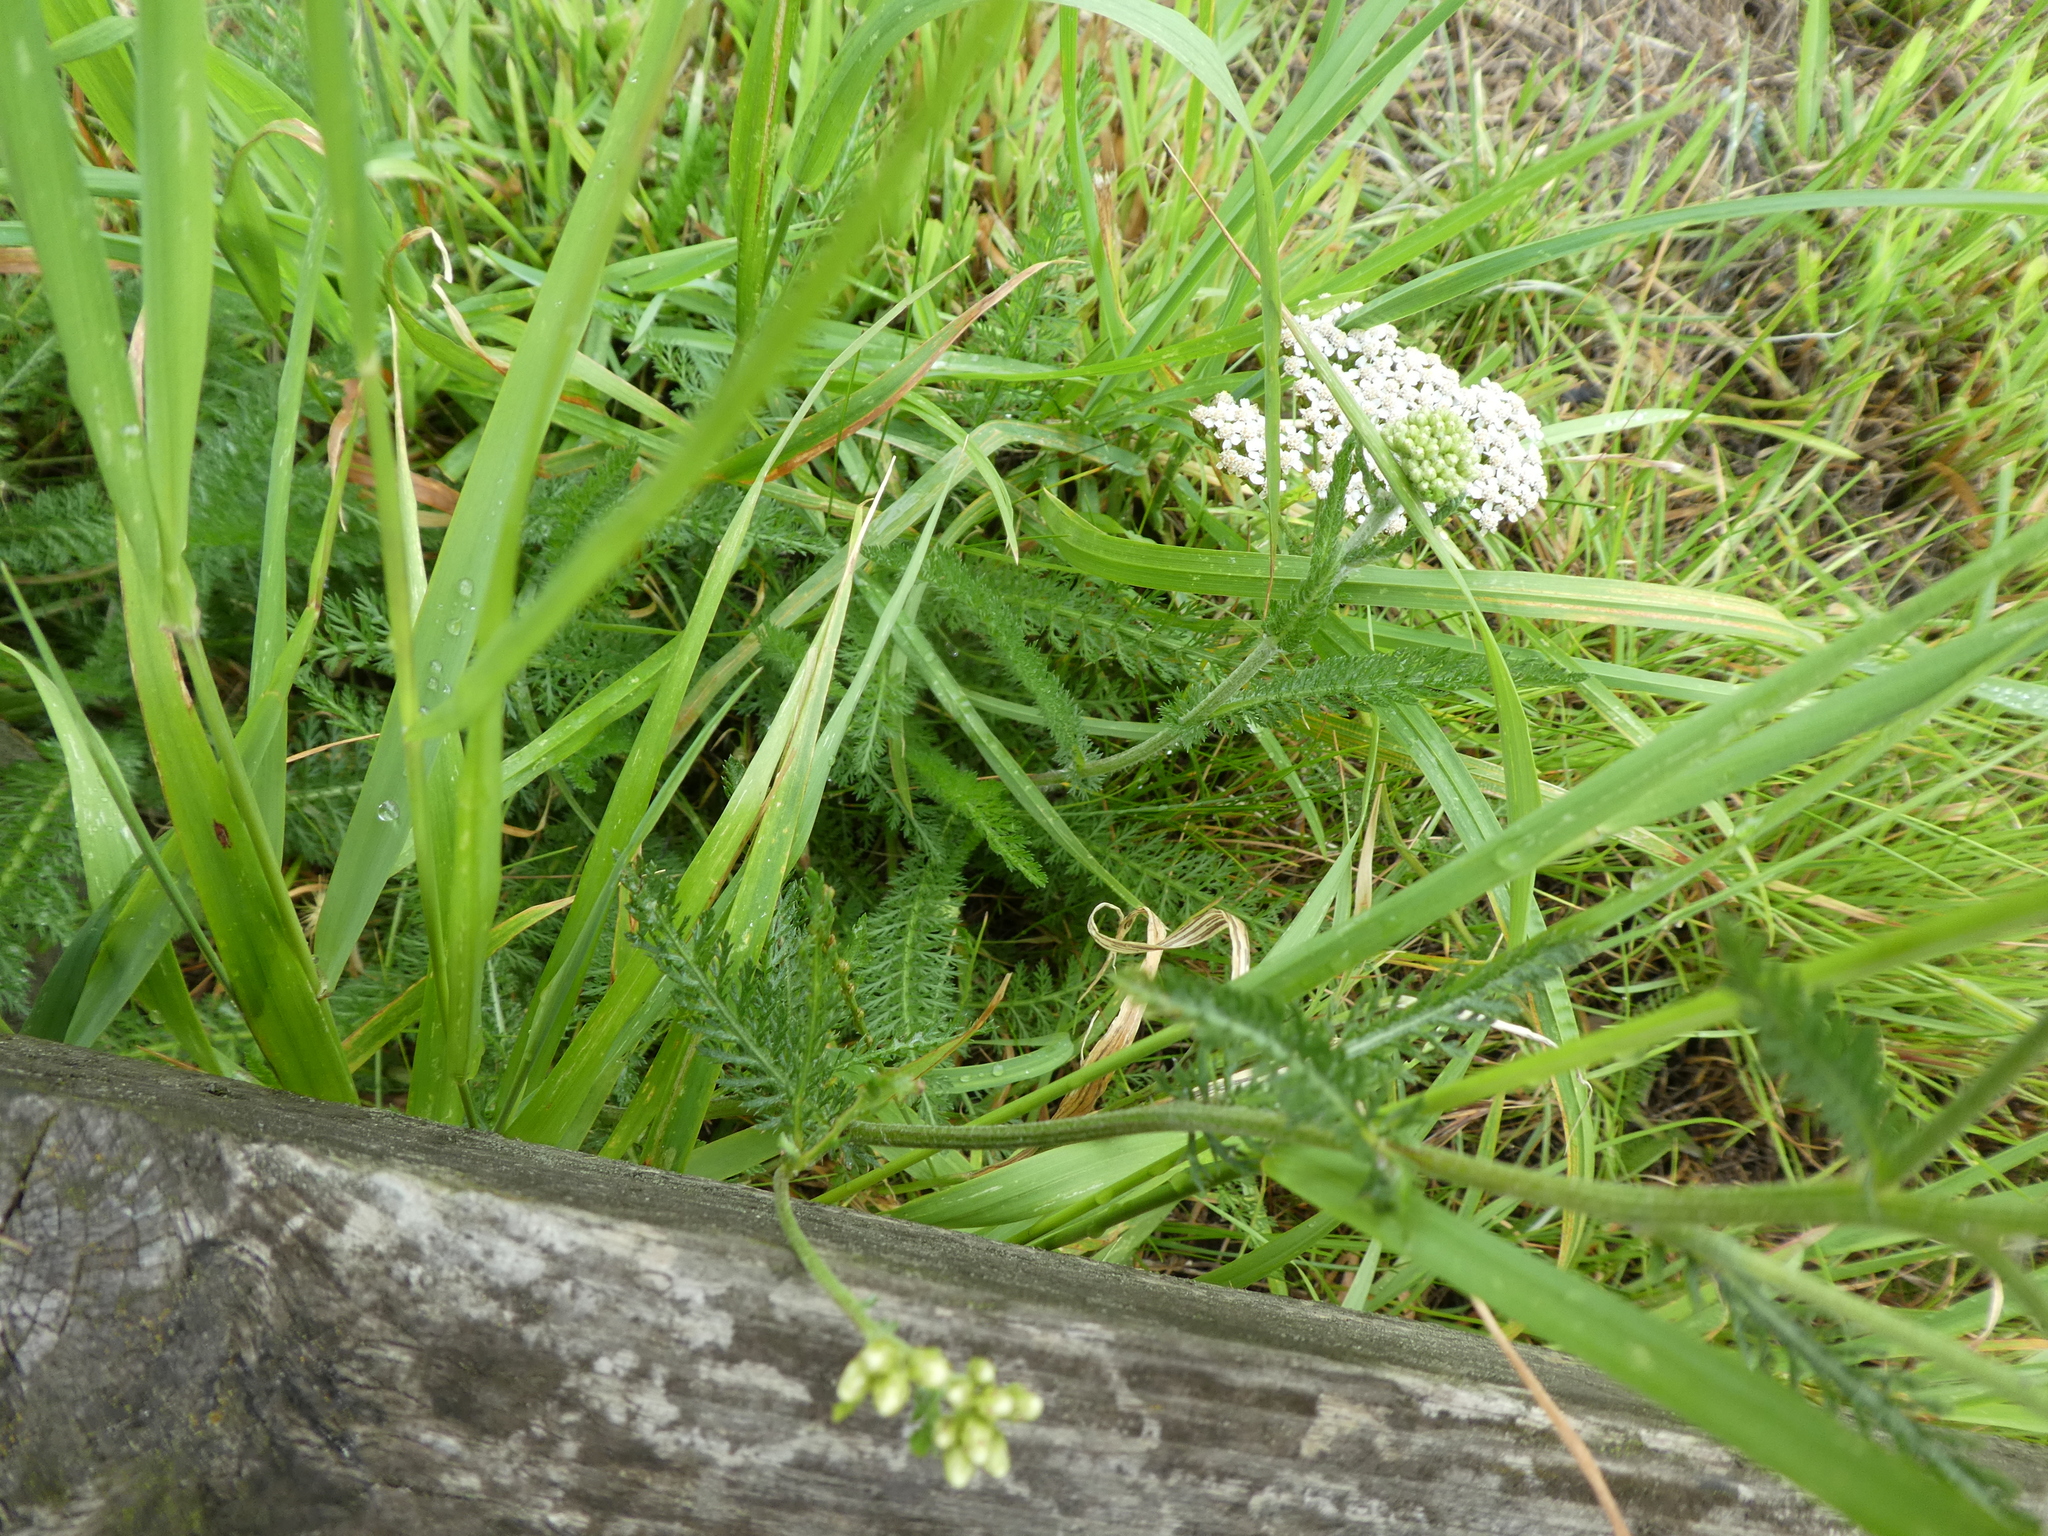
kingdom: Plantae
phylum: Tracheophyta
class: Magnoliopsida
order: Asterales
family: Asteraceae
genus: Achillea
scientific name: Achillea millefolium
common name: Yarrow
